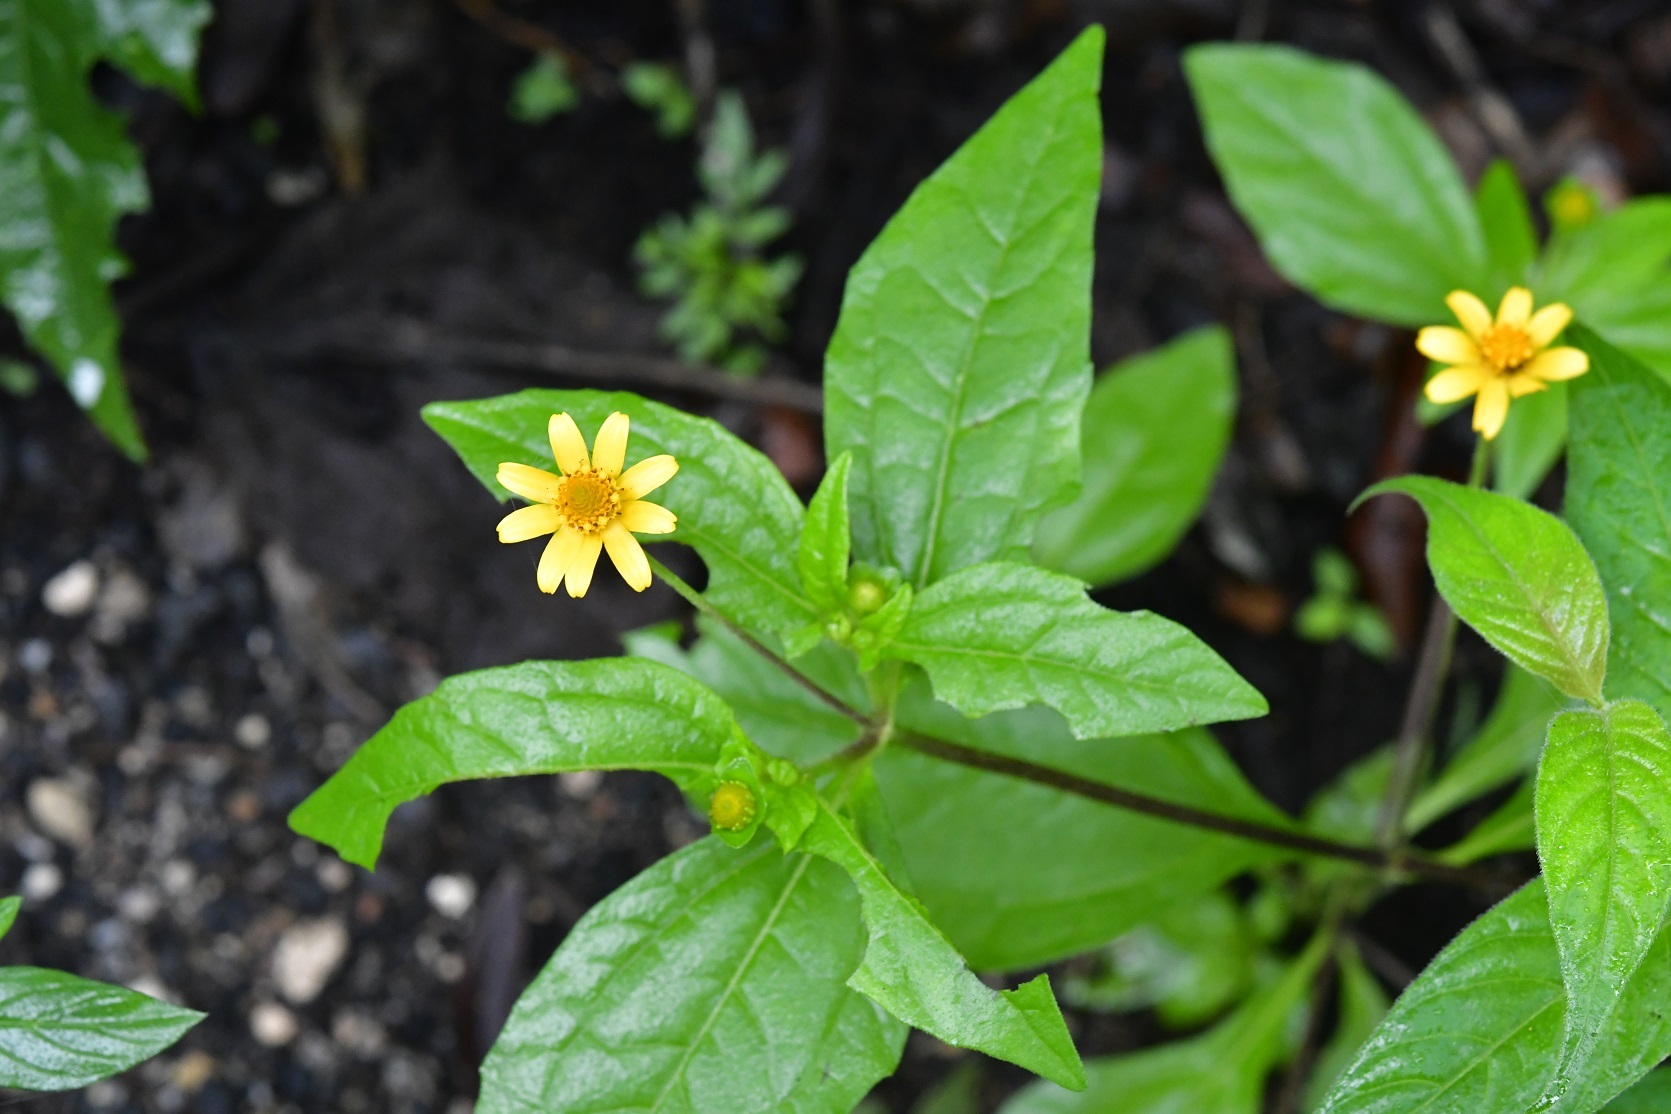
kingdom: Plantae
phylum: Tracheophyta
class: Magnoliopsida
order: Asterales
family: Asteraceae
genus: Melampodium
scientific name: Melampodium divaricatum
